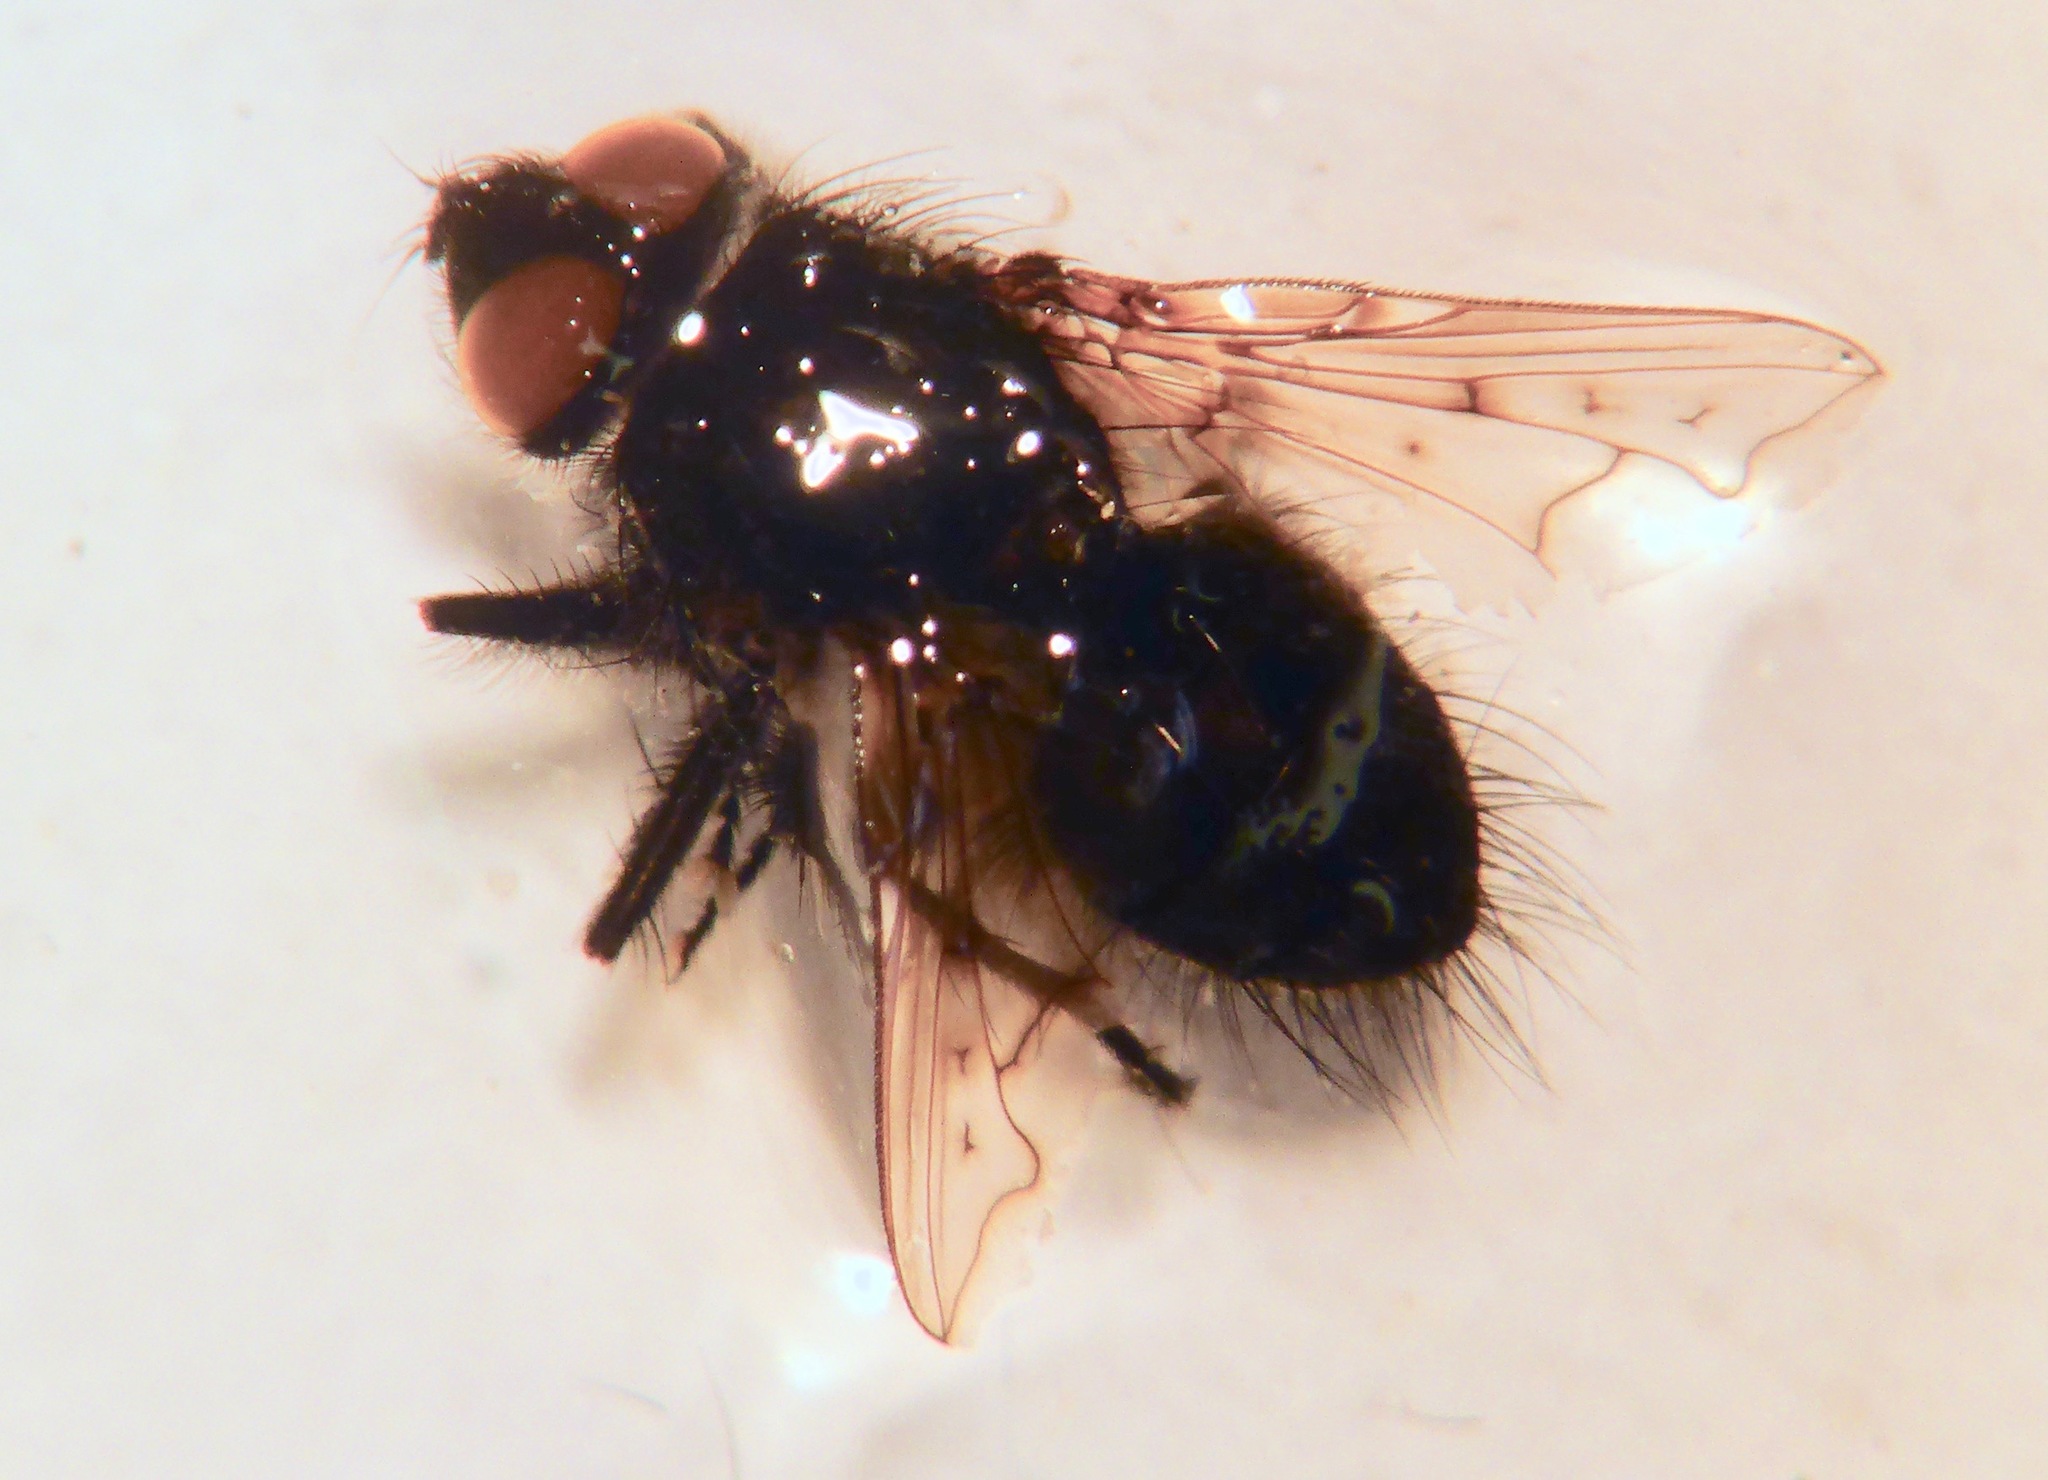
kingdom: Animalia
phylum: Arthropoda
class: Insecta
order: Diptera
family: Tachinidae
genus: Mallochomacquartia
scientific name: Mallochomacquartia vexata
